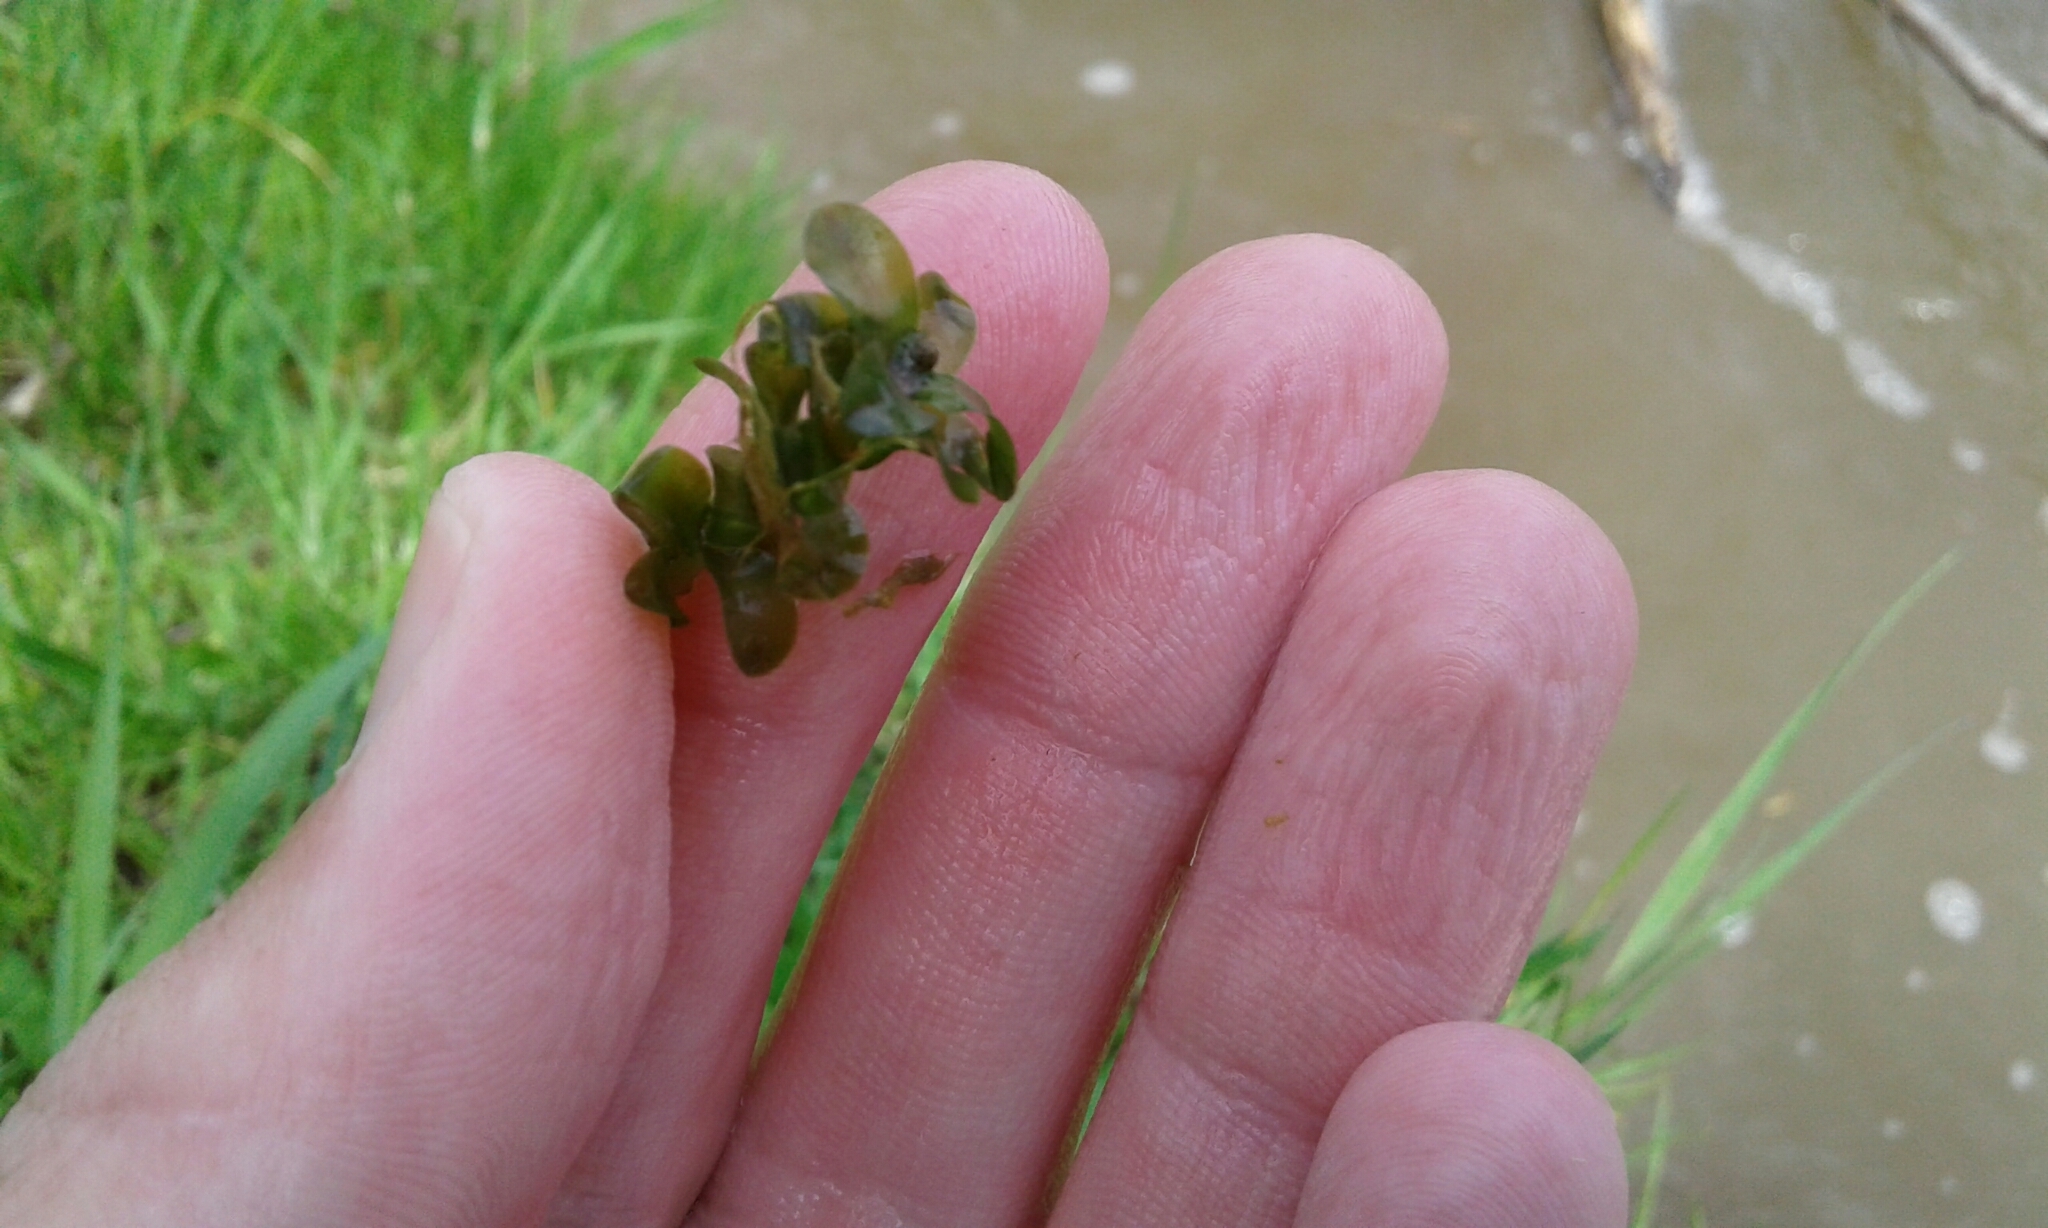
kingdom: Plantae
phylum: Tracheophyta
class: Liliopsida
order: Alismatales
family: Hydrocharitaceae
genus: Elodea
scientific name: Elodea canadensis
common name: Canadian waterweed
